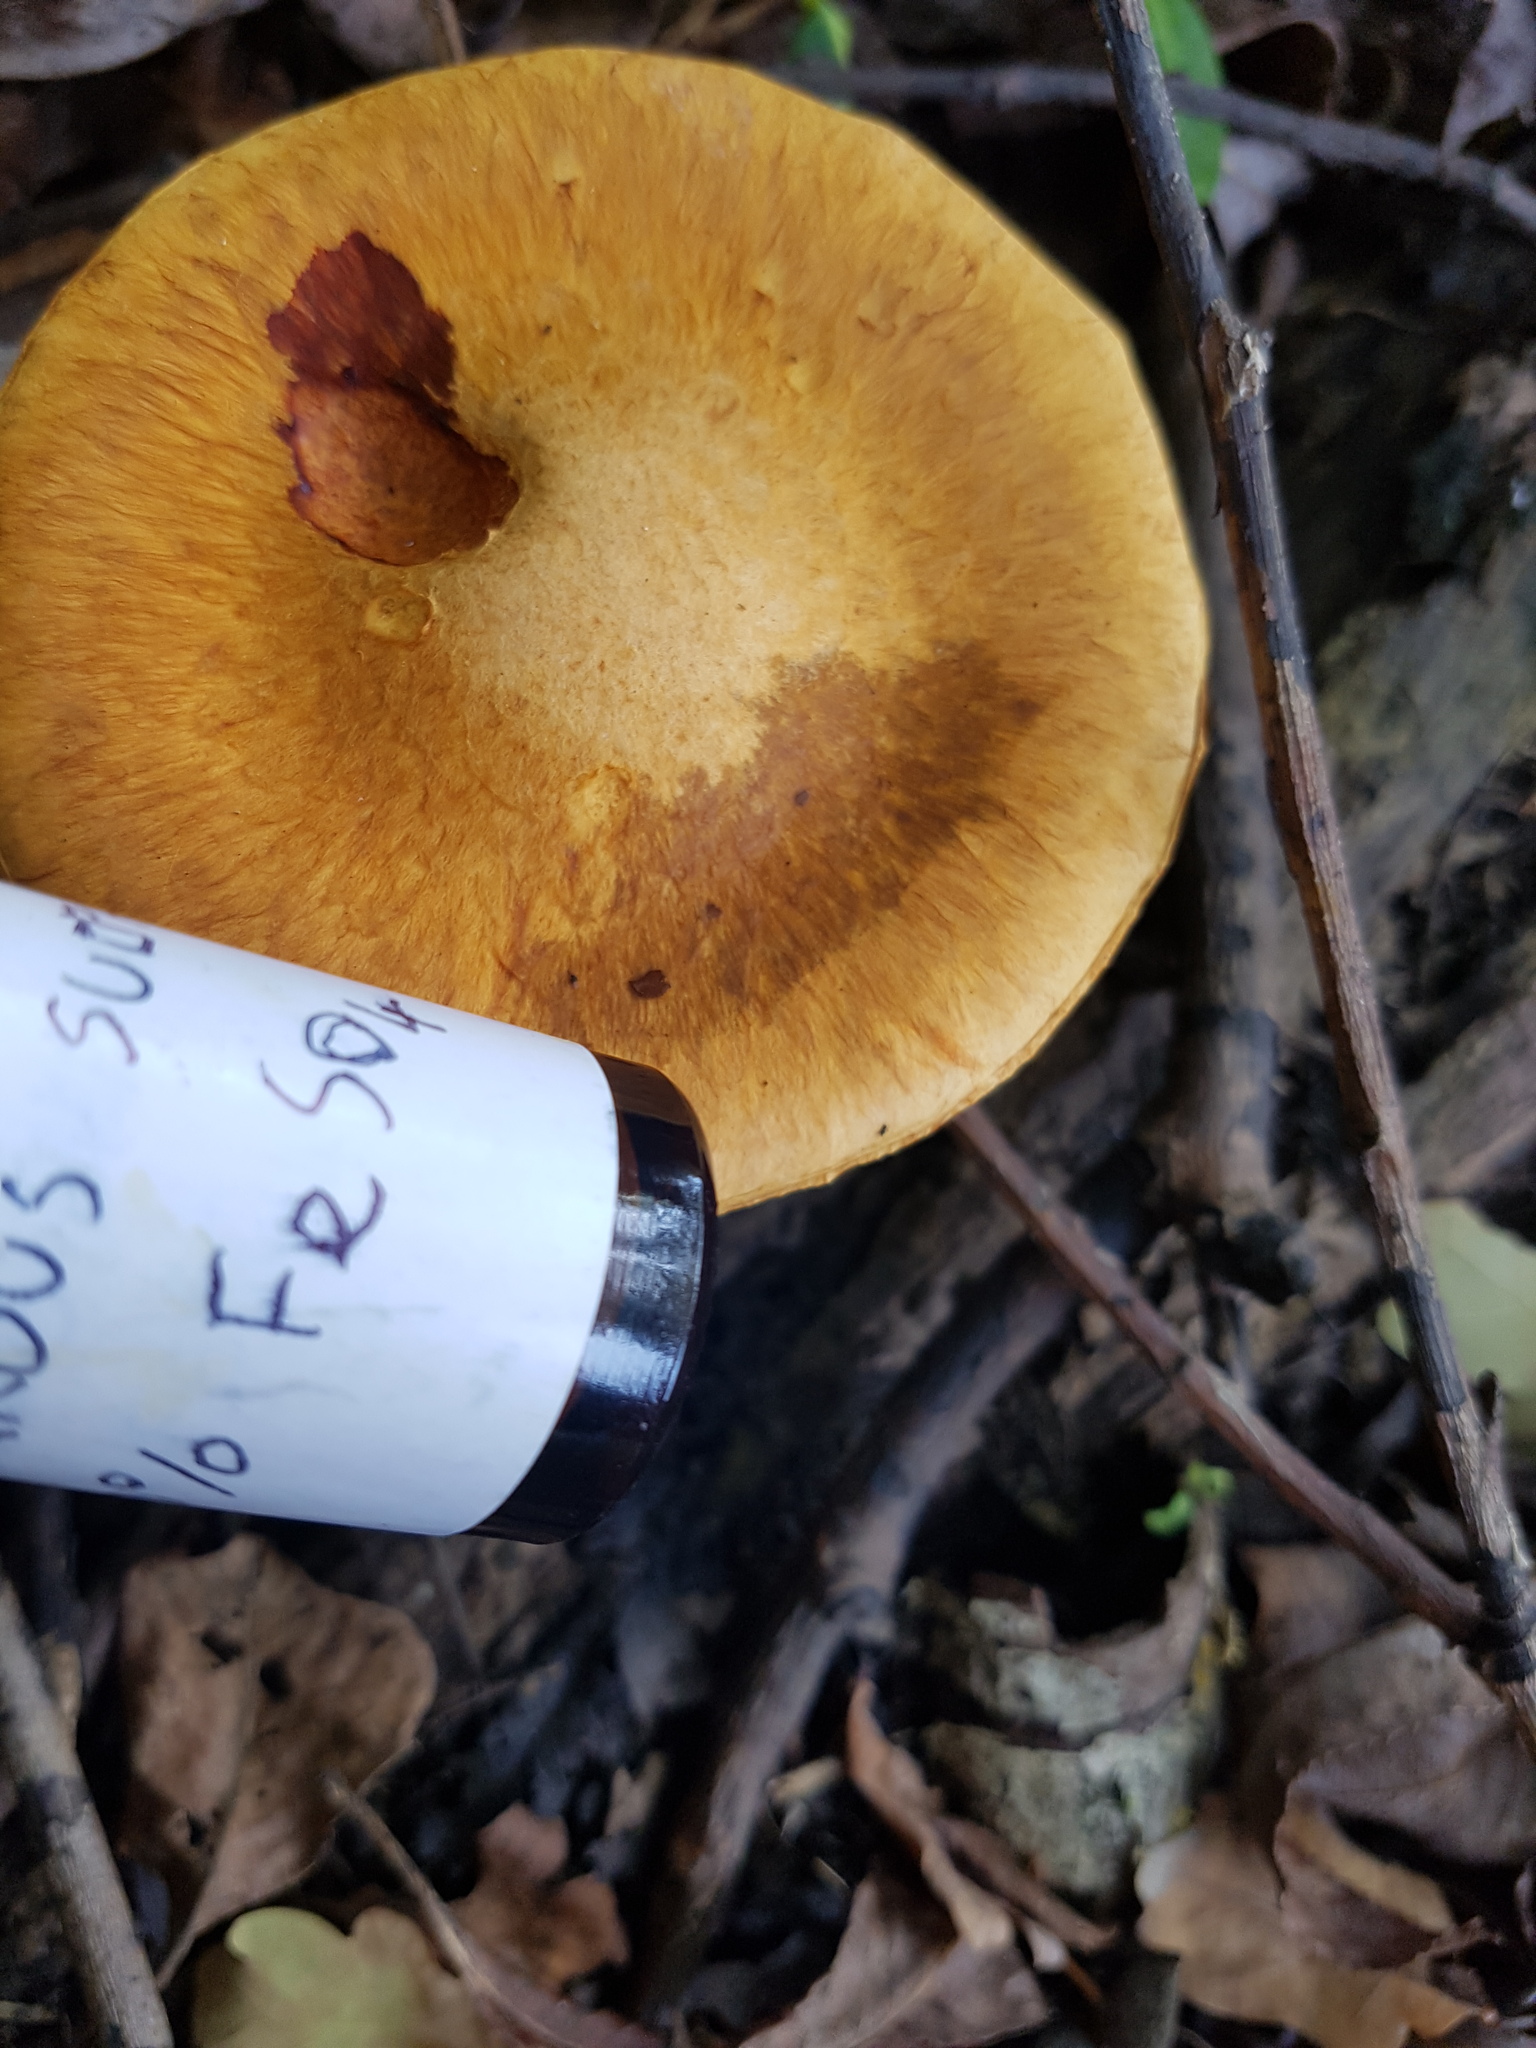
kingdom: Fungi
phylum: Basidiomycota
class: Agaricomycetes
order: Agaricales
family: Hymenogastraceae
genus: Gymnopilus
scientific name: Gymnopilus junonius
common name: Spectacular rustgill
